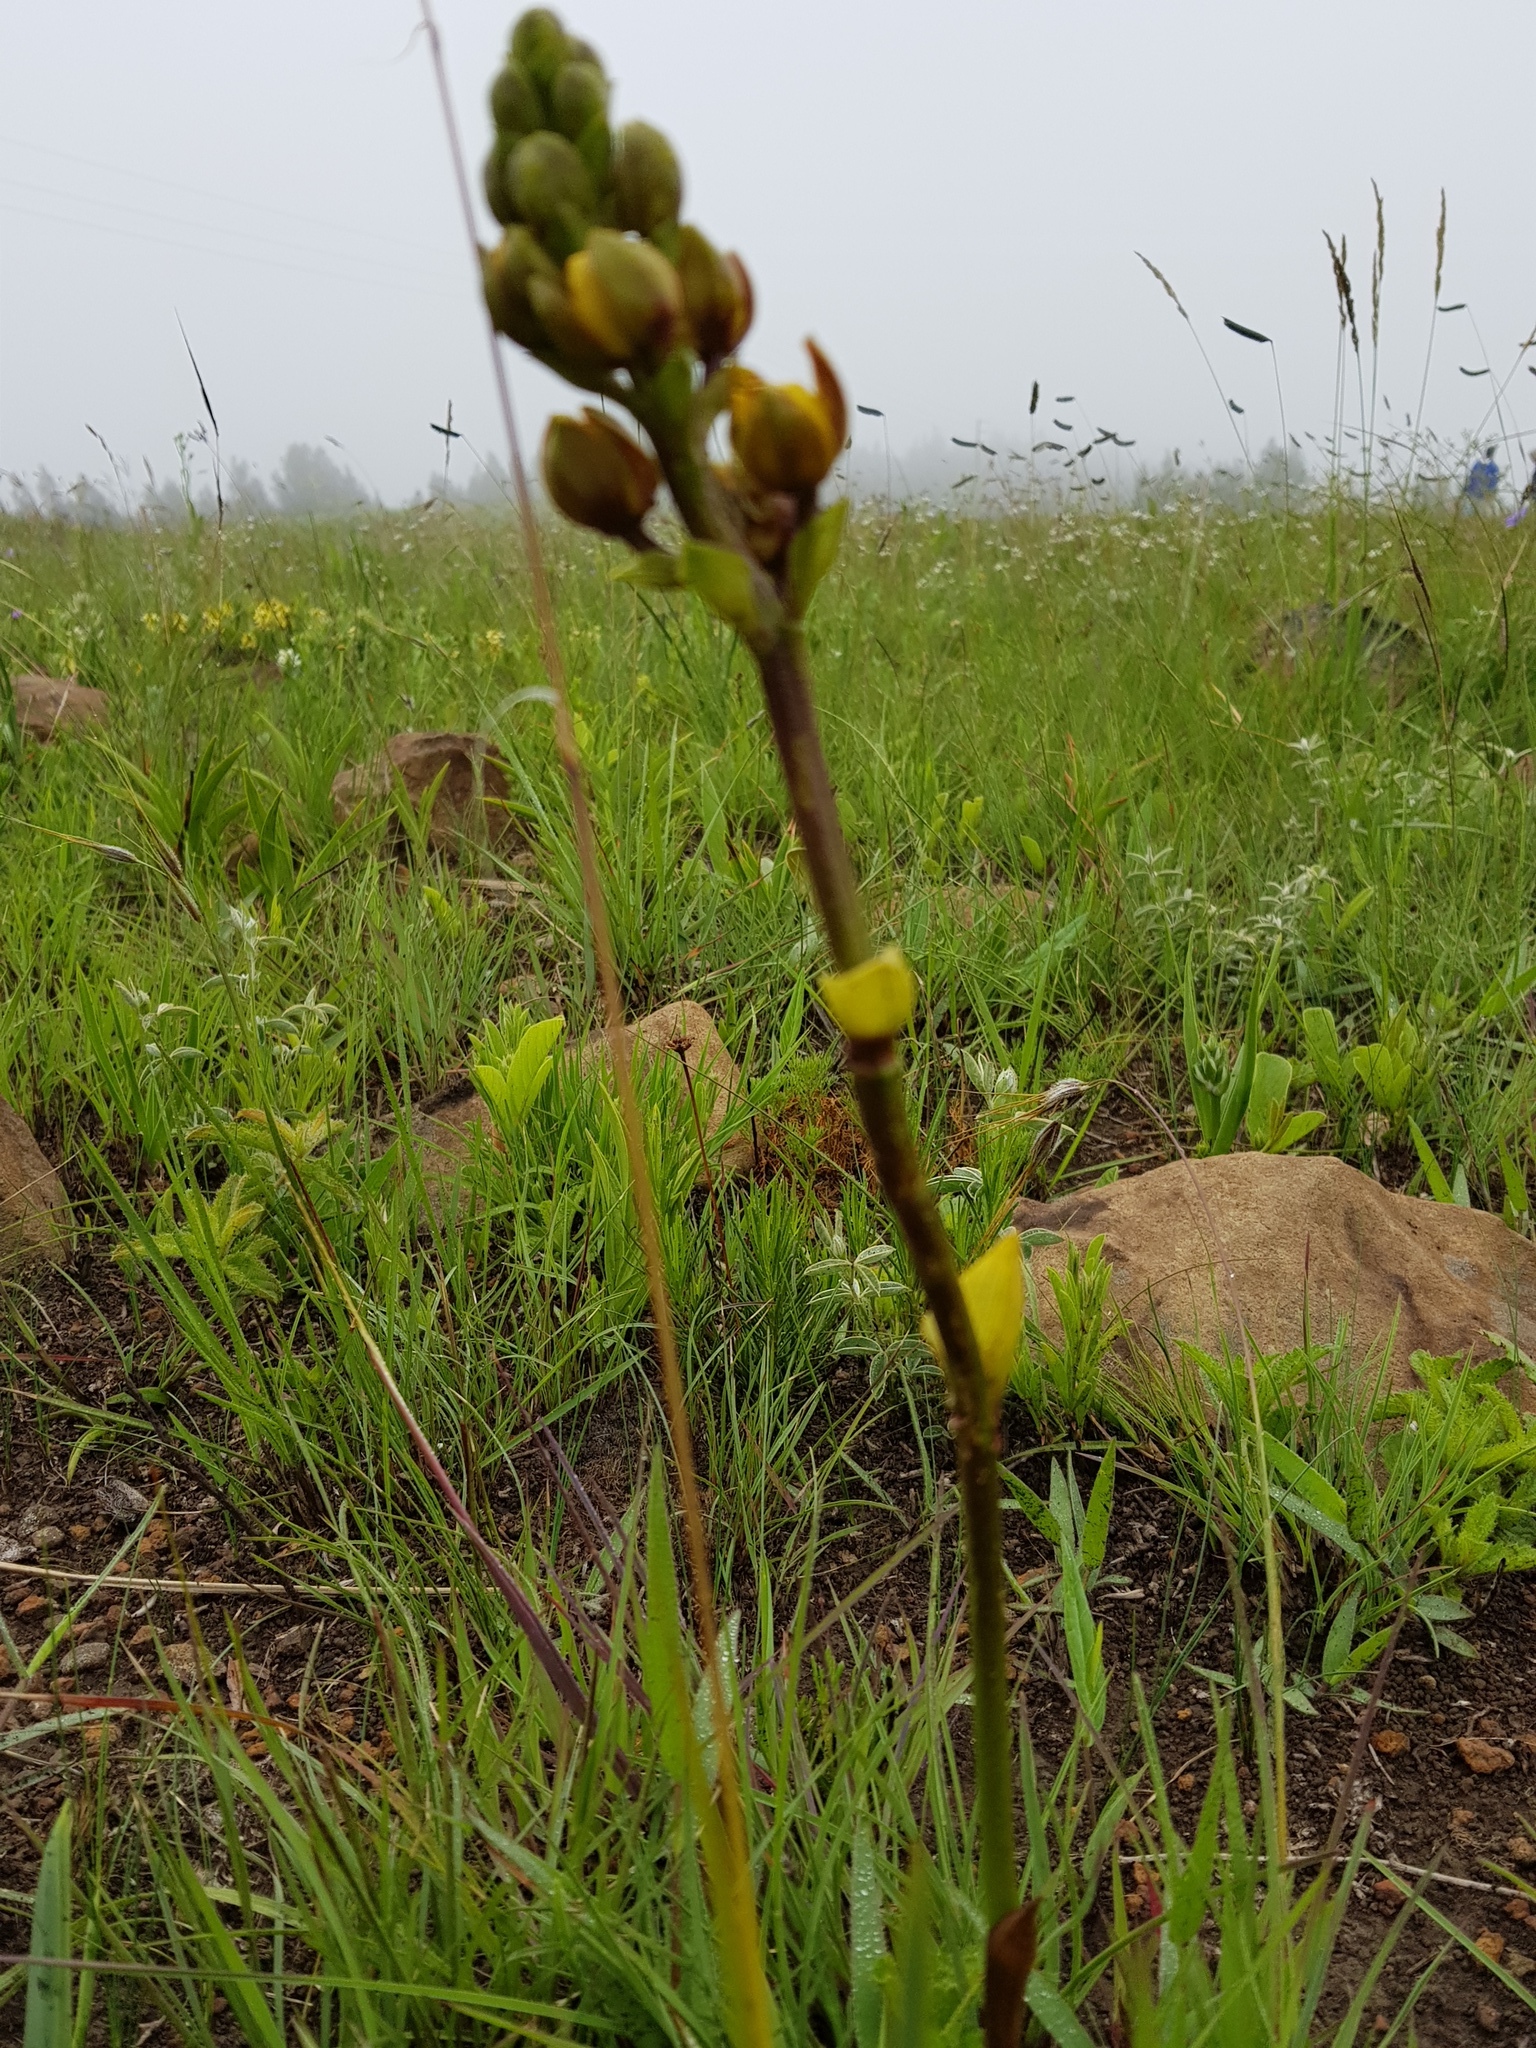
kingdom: Plantae
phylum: Tracheophyta
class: Liliopsida
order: Asparagales
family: Orchidaceae
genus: Eulophia
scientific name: Eulophia parviflora
